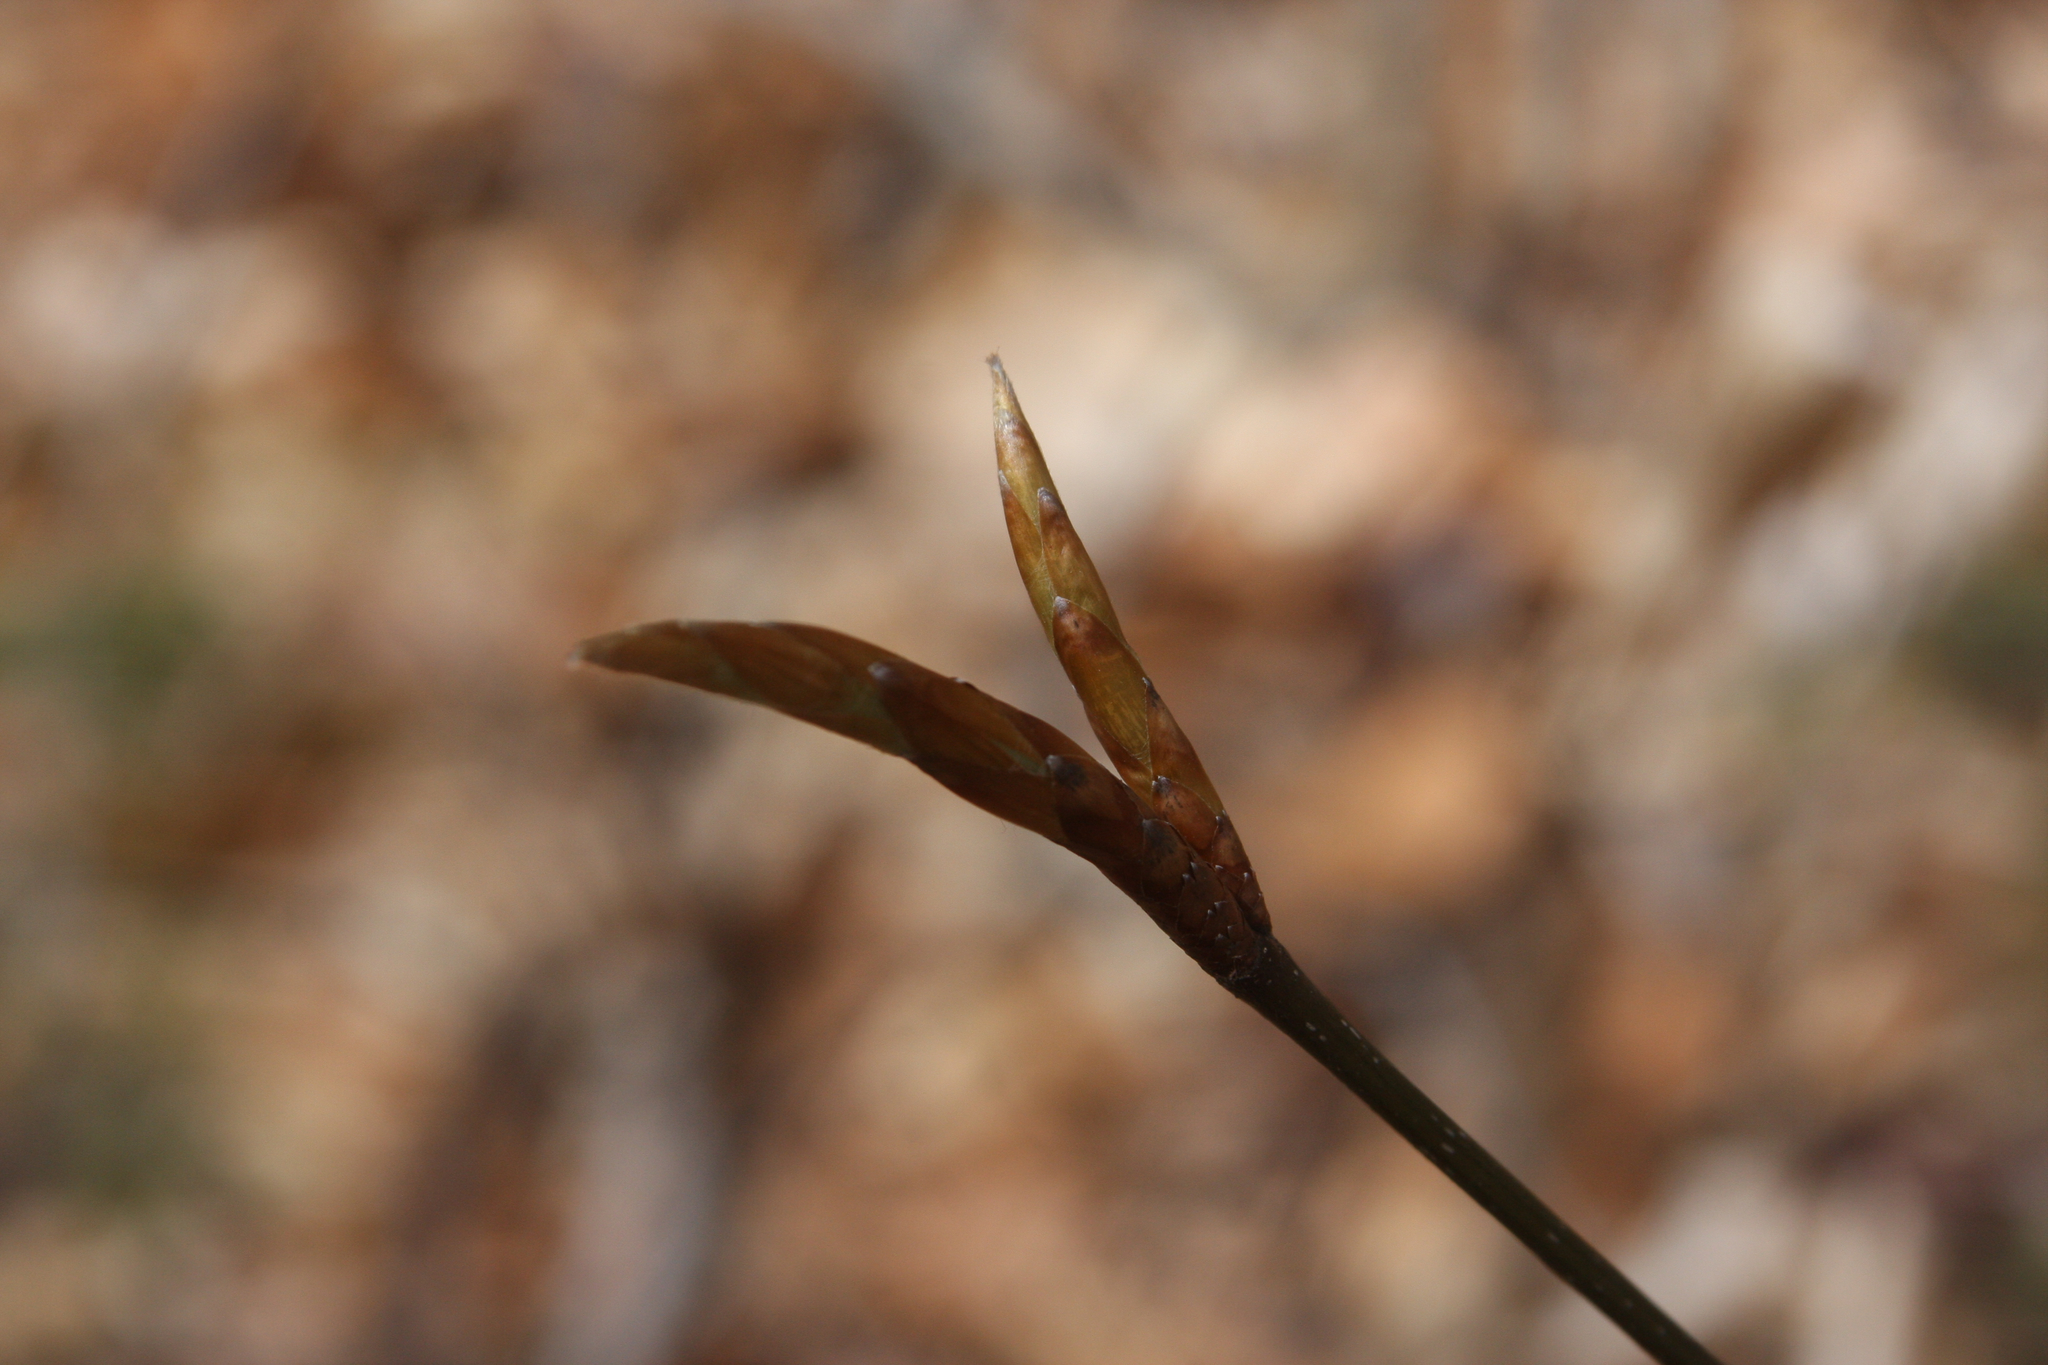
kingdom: Plantae
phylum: Tracheophyta
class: Magnoliopsida
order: Fagales
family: Fagaceae
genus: Fagus
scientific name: Fagus grandifolia
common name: American beech
